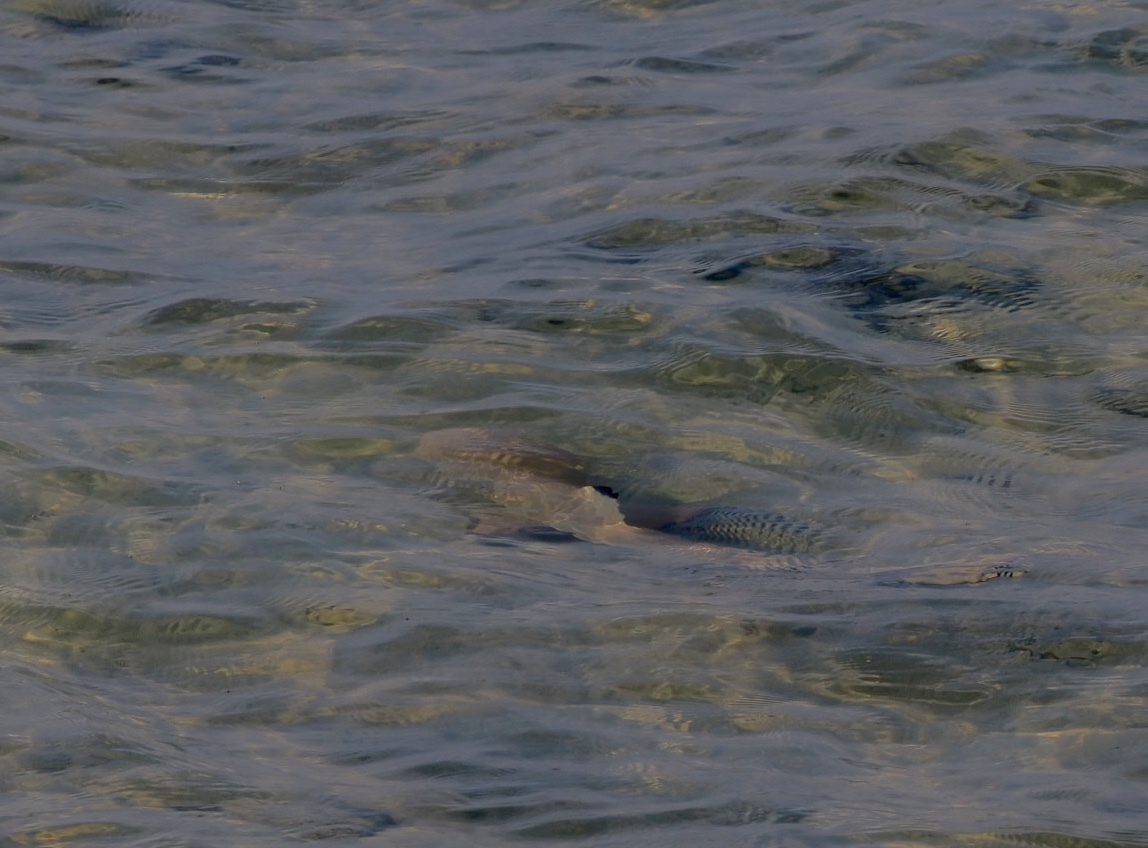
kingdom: Animalia
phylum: Chordata
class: Elasmobranchii
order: Carcharhiniformes
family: Carcharhinidae
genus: Carcharhinus
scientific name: Carcharhinus melanopterus
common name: Blacktip reef shark
